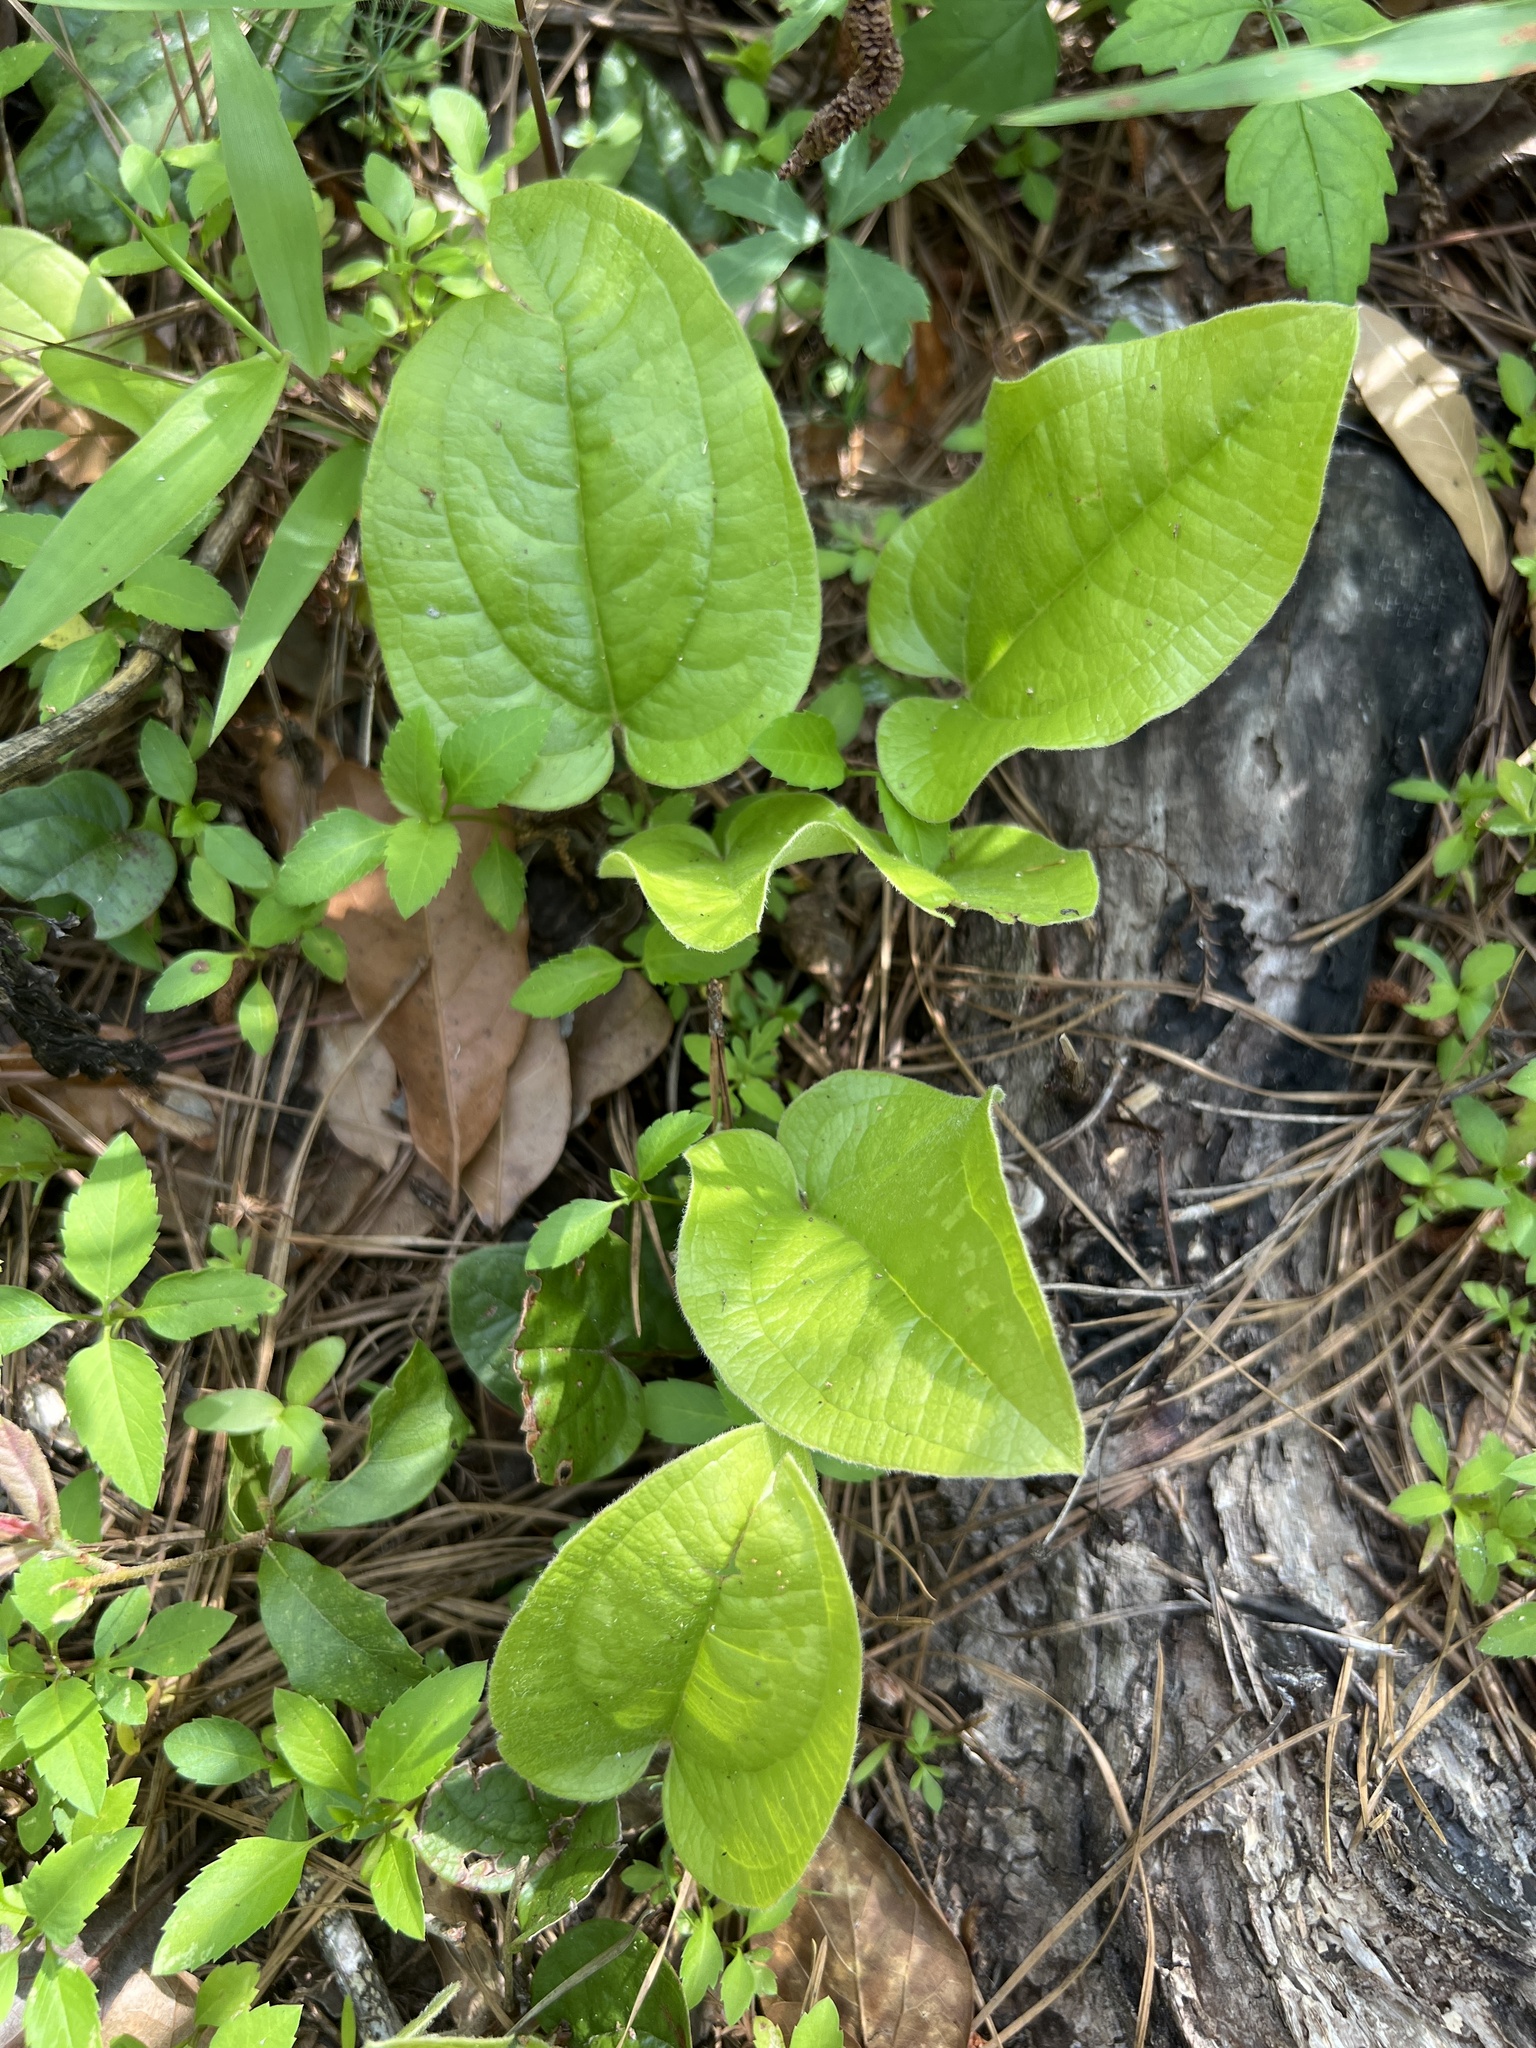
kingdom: Plantae
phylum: Tracheophyta
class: Liliopsida
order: Liliales
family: Smilacaceae
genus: Smilax
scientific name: Smilax pumila
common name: Sarsaparilla-vine
